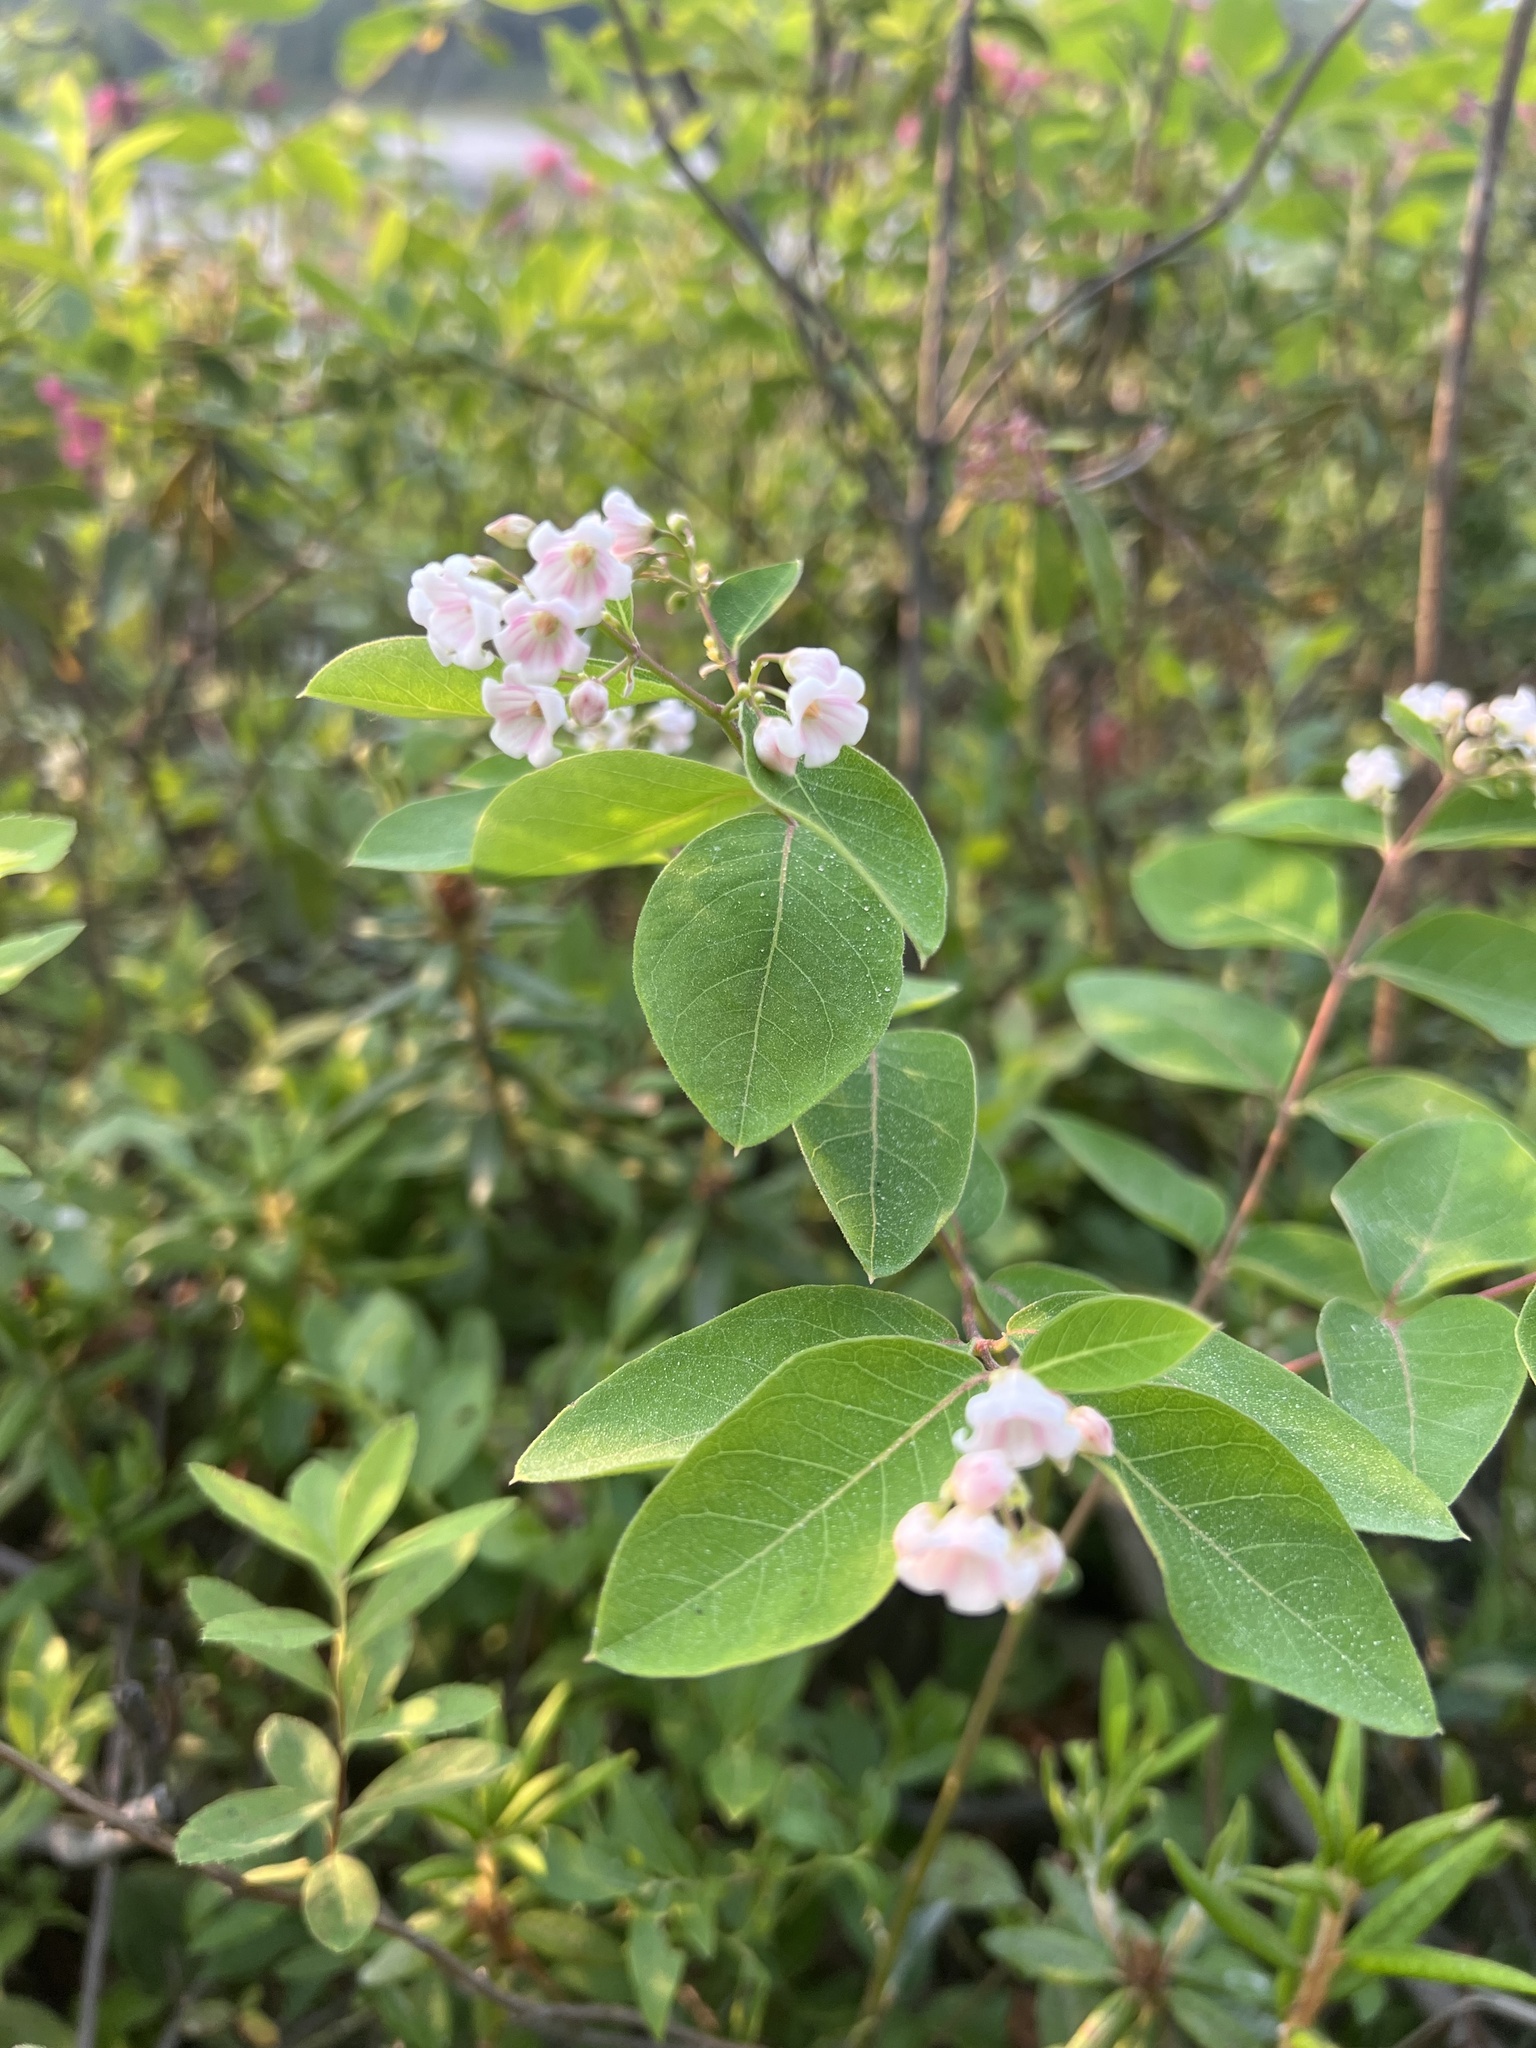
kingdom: Plantae
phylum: Tracheophyta
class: Magnoliopsida
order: Gentianales
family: Apocynaceae
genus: Apocynum
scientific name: Apocynum androsaemifolium
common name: Spreading dogbane
